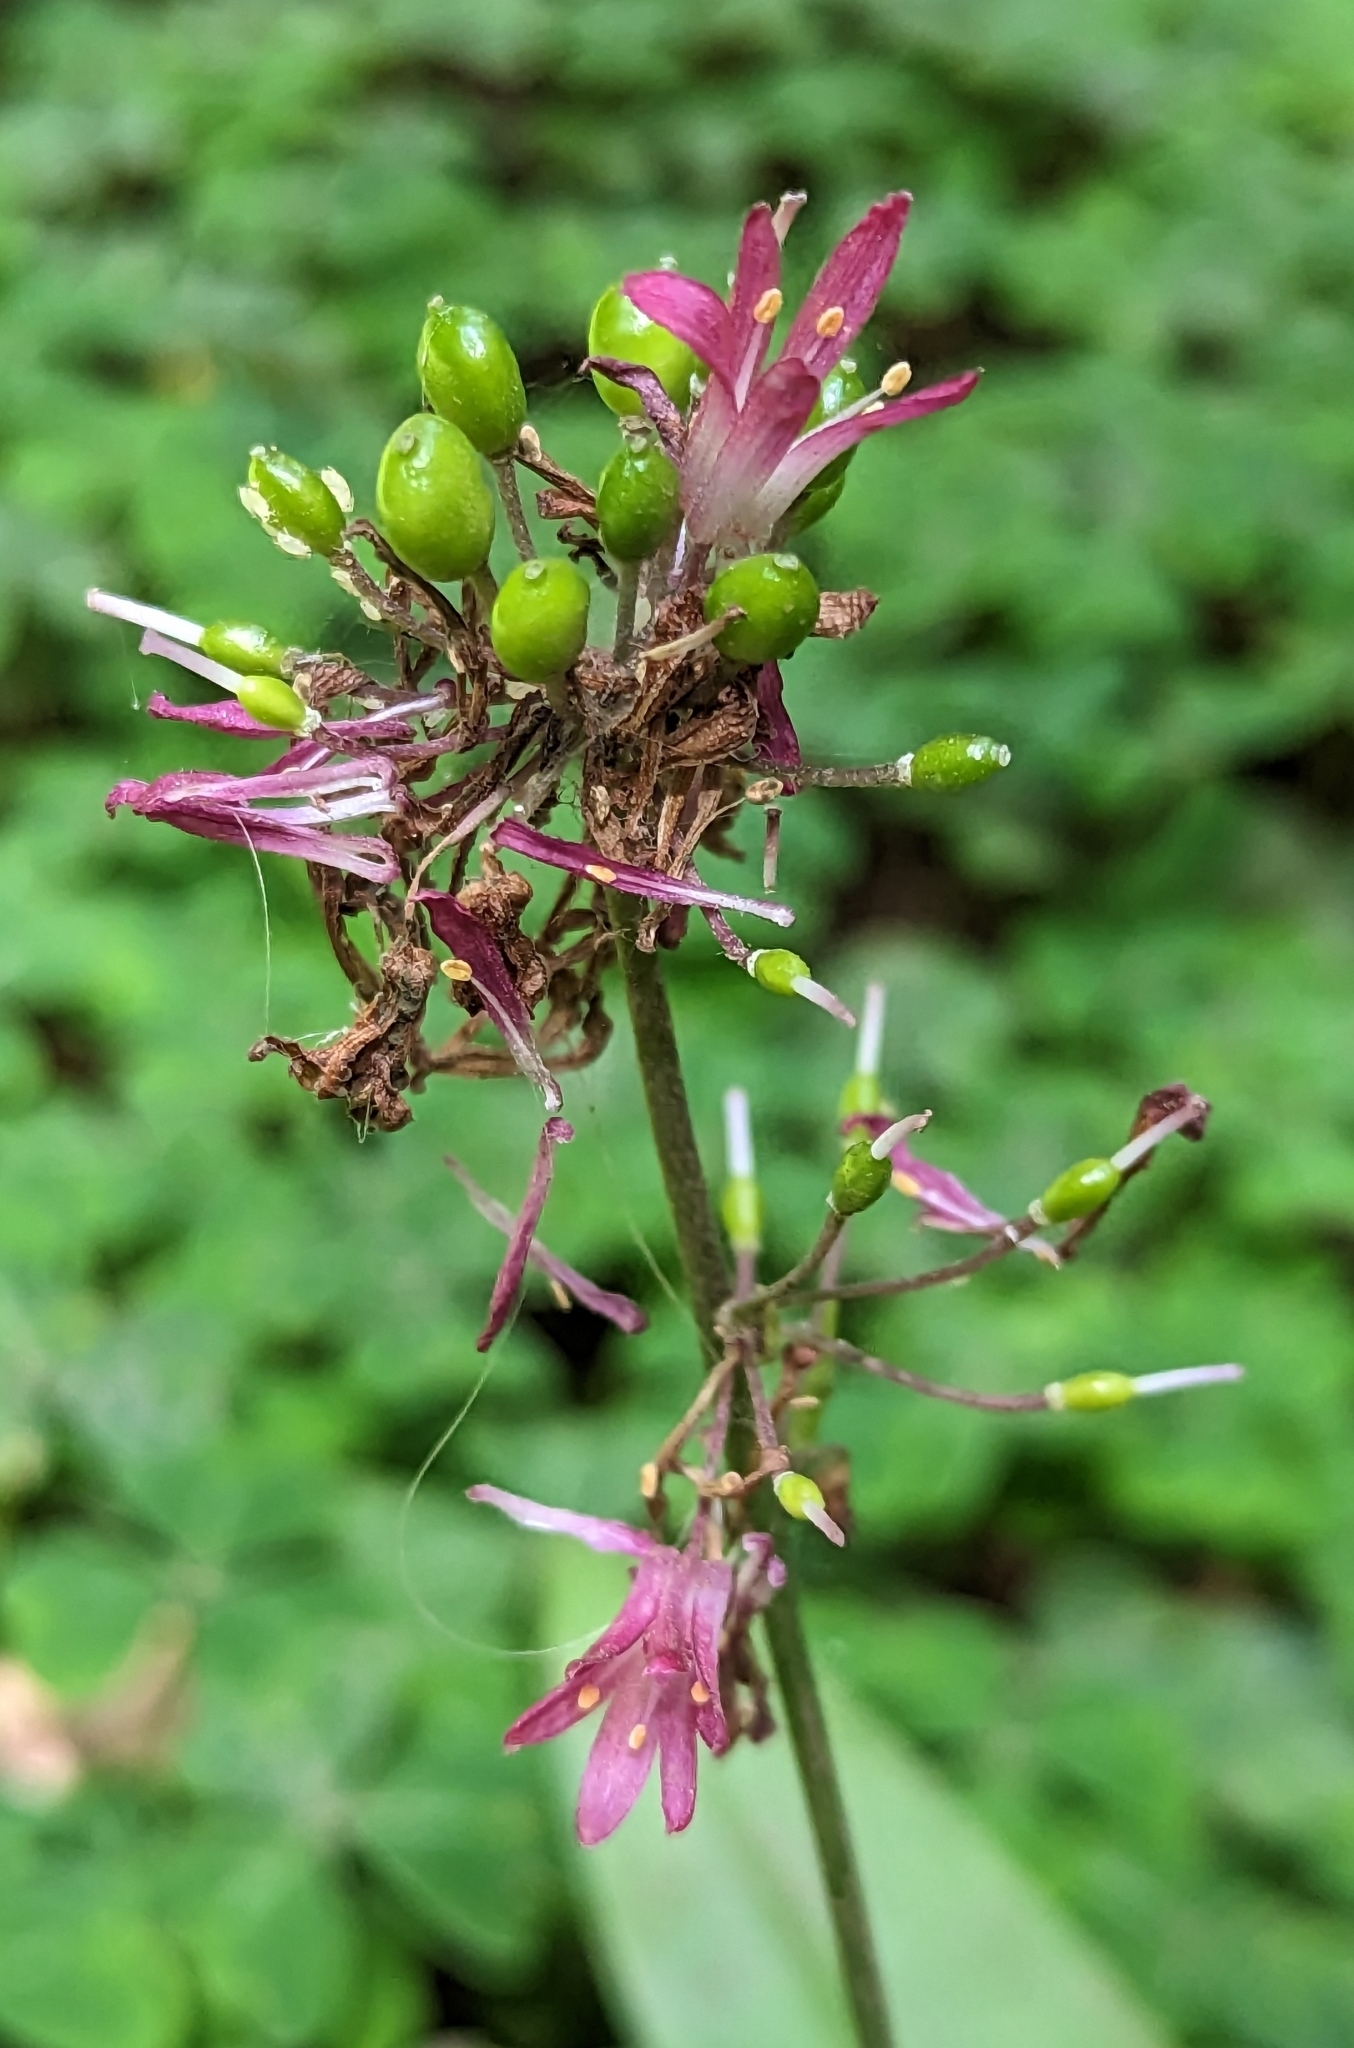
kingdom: Plantae
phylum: Tracheophyta
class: Liliopsida
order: Liliales
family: Liliaceae
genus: Clintonia
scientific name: Clintonia andrewsiana
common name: Red clintonia
